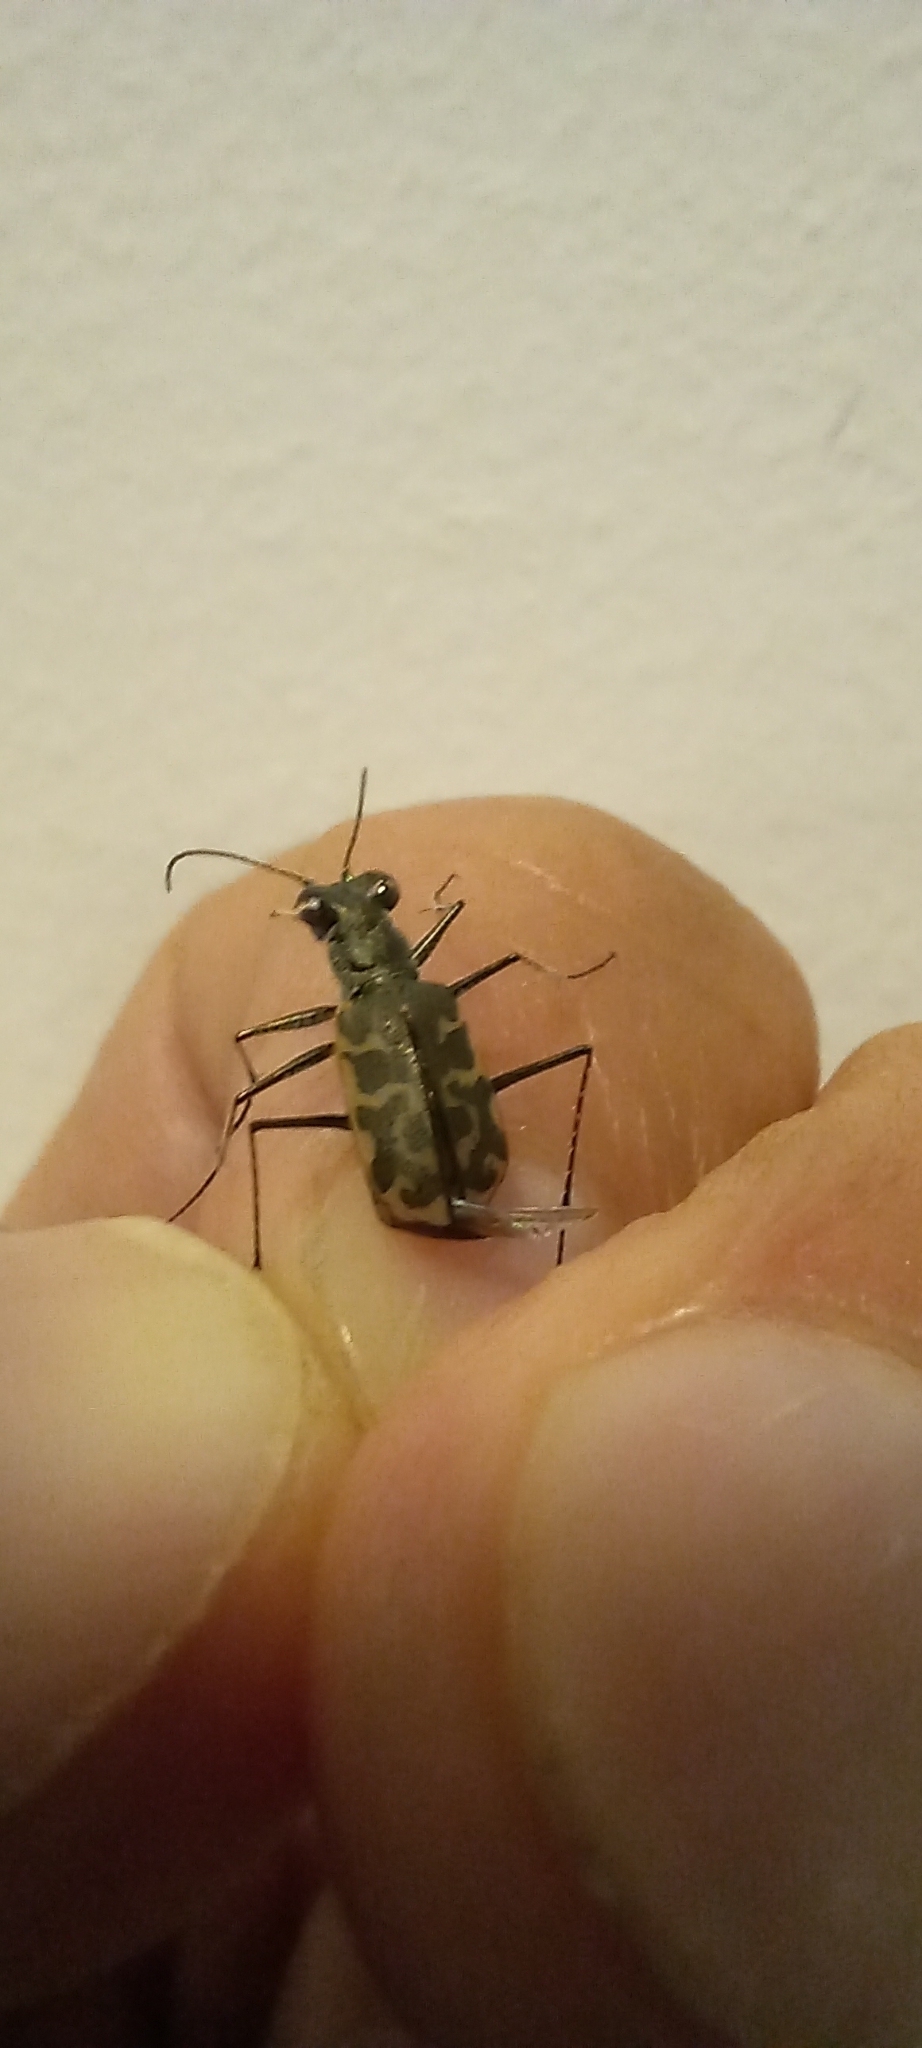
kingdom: Animalia
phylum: Arthropoda
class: Insecta
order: Coleoptera
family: Carabidae
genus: Cicindela
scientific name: Cicindela trifasciata
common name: Mudflat tiger beetle
